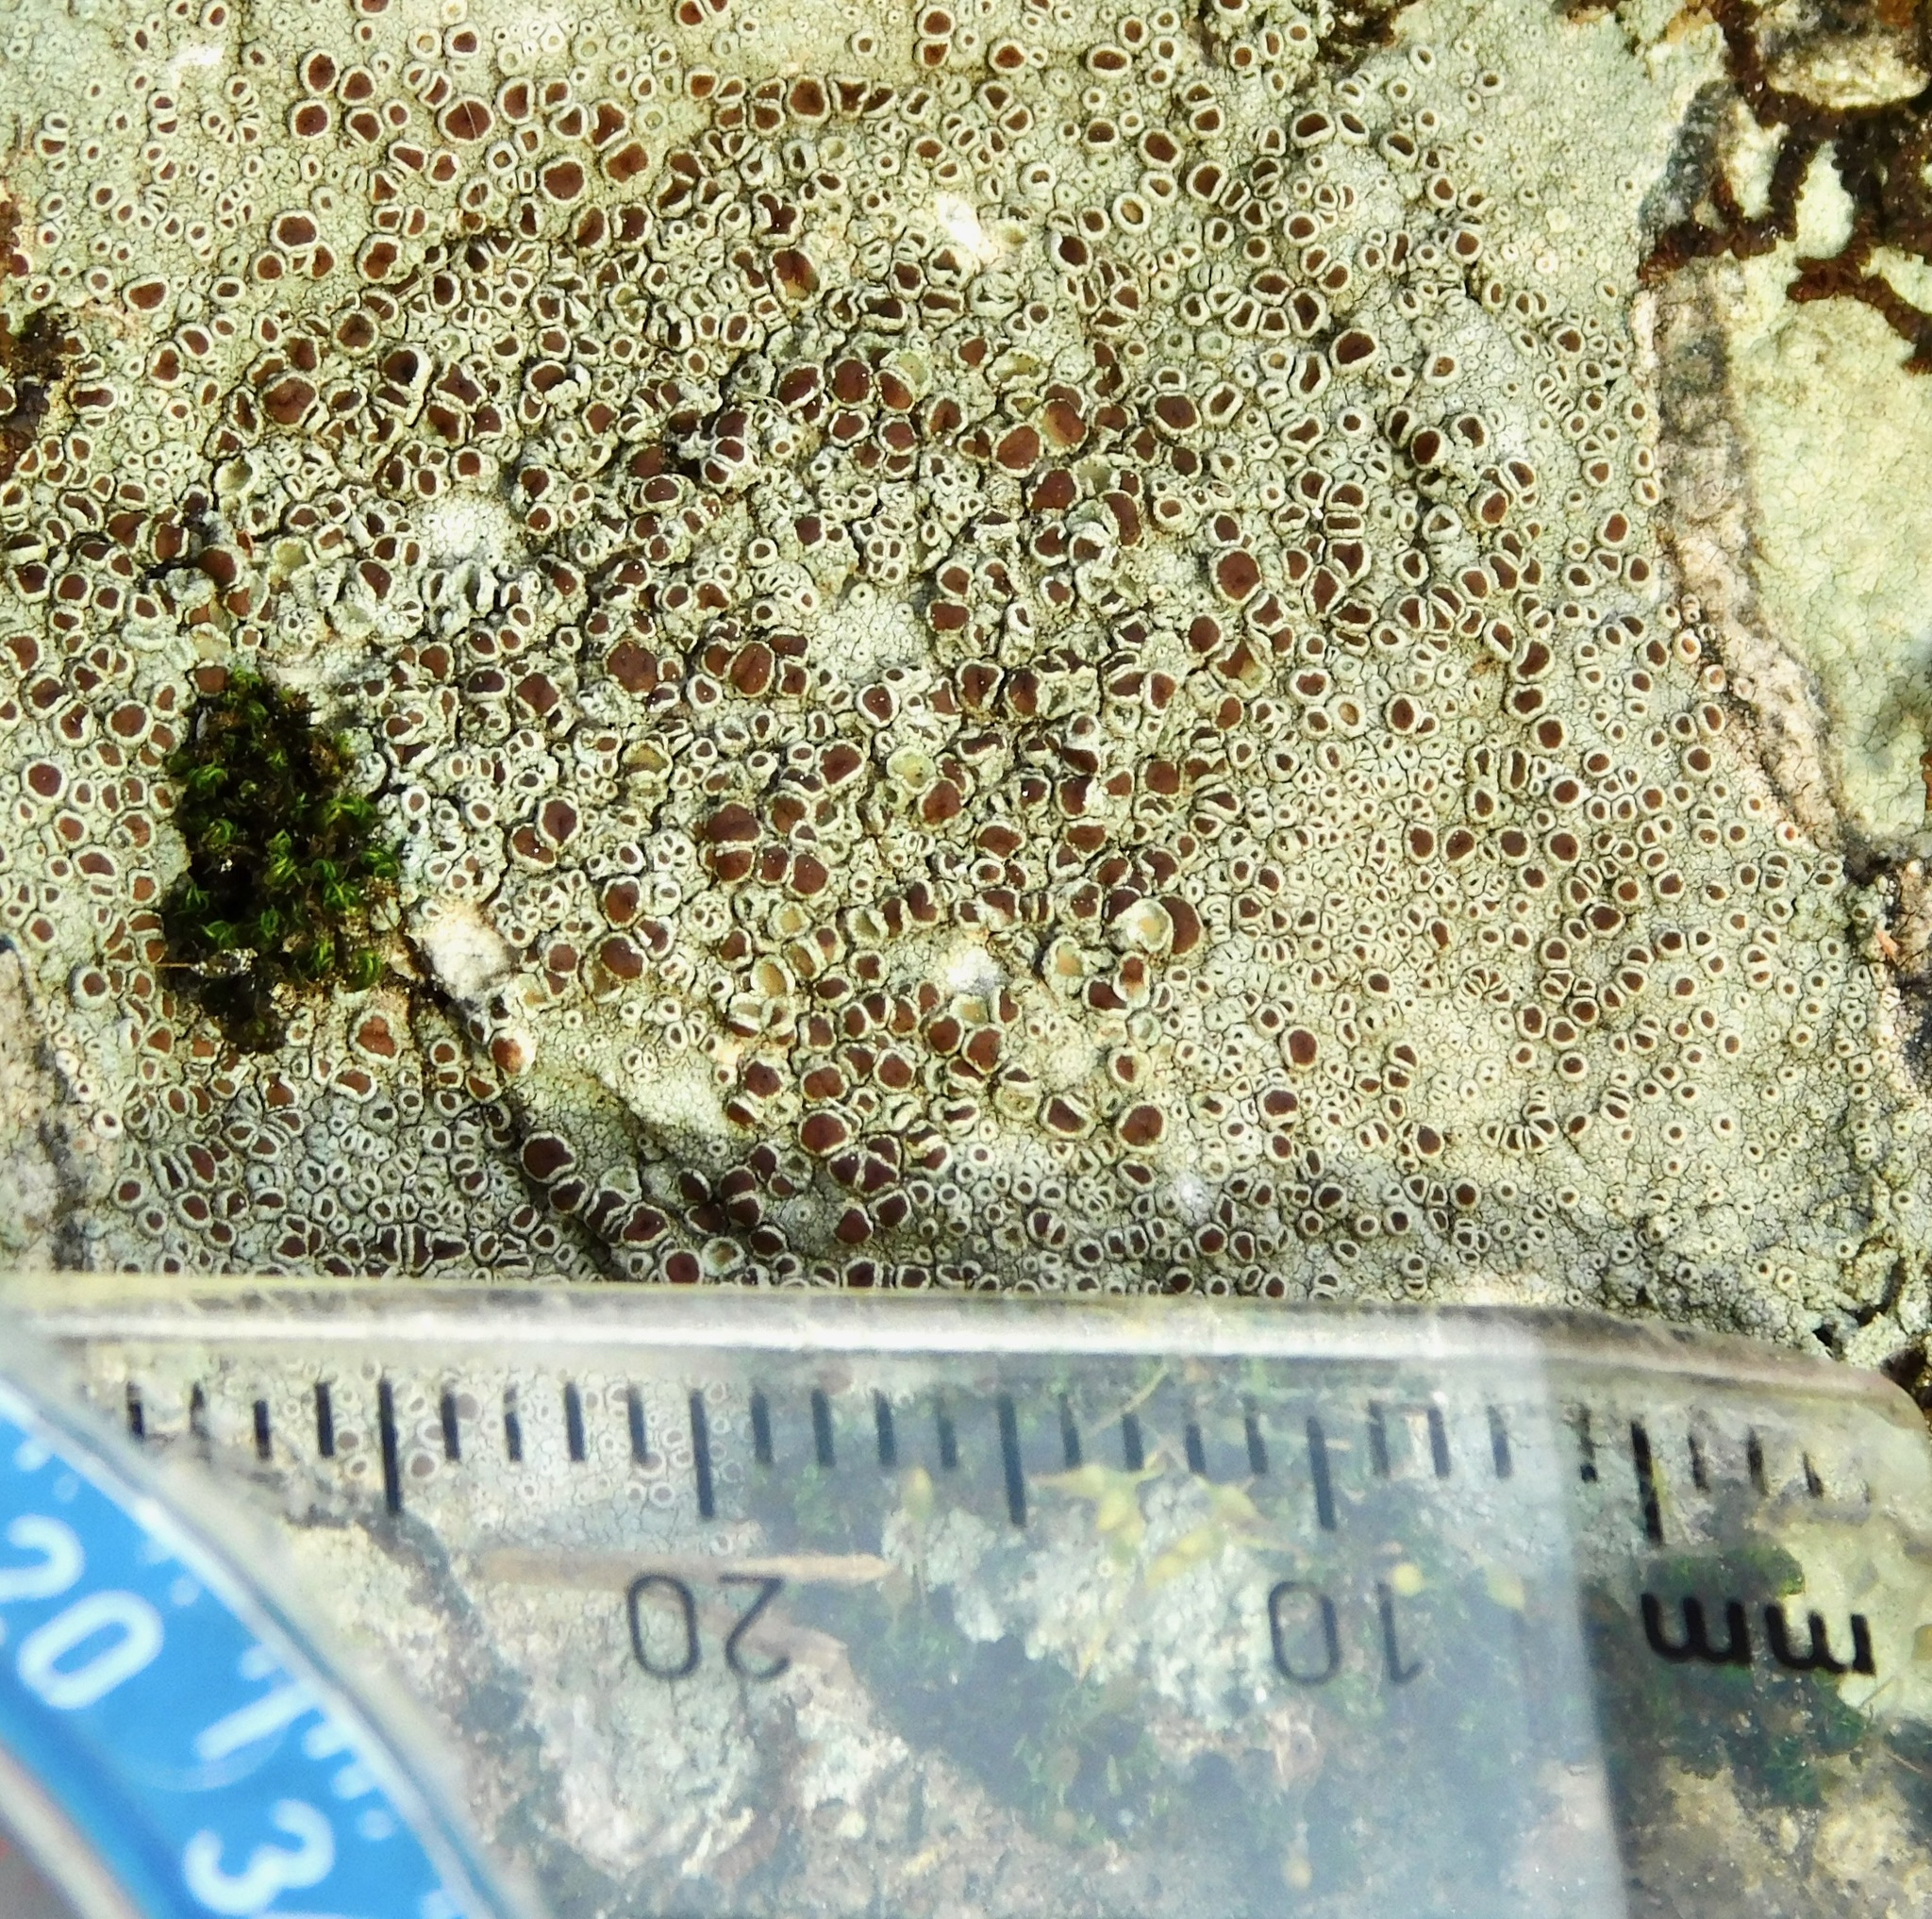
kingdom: Fungi
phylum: Ascomycota
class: Lecanoromycetes
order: Lecanorales
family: Lecanoraceae
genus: Lecanora
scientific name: Lecanora saxigena
